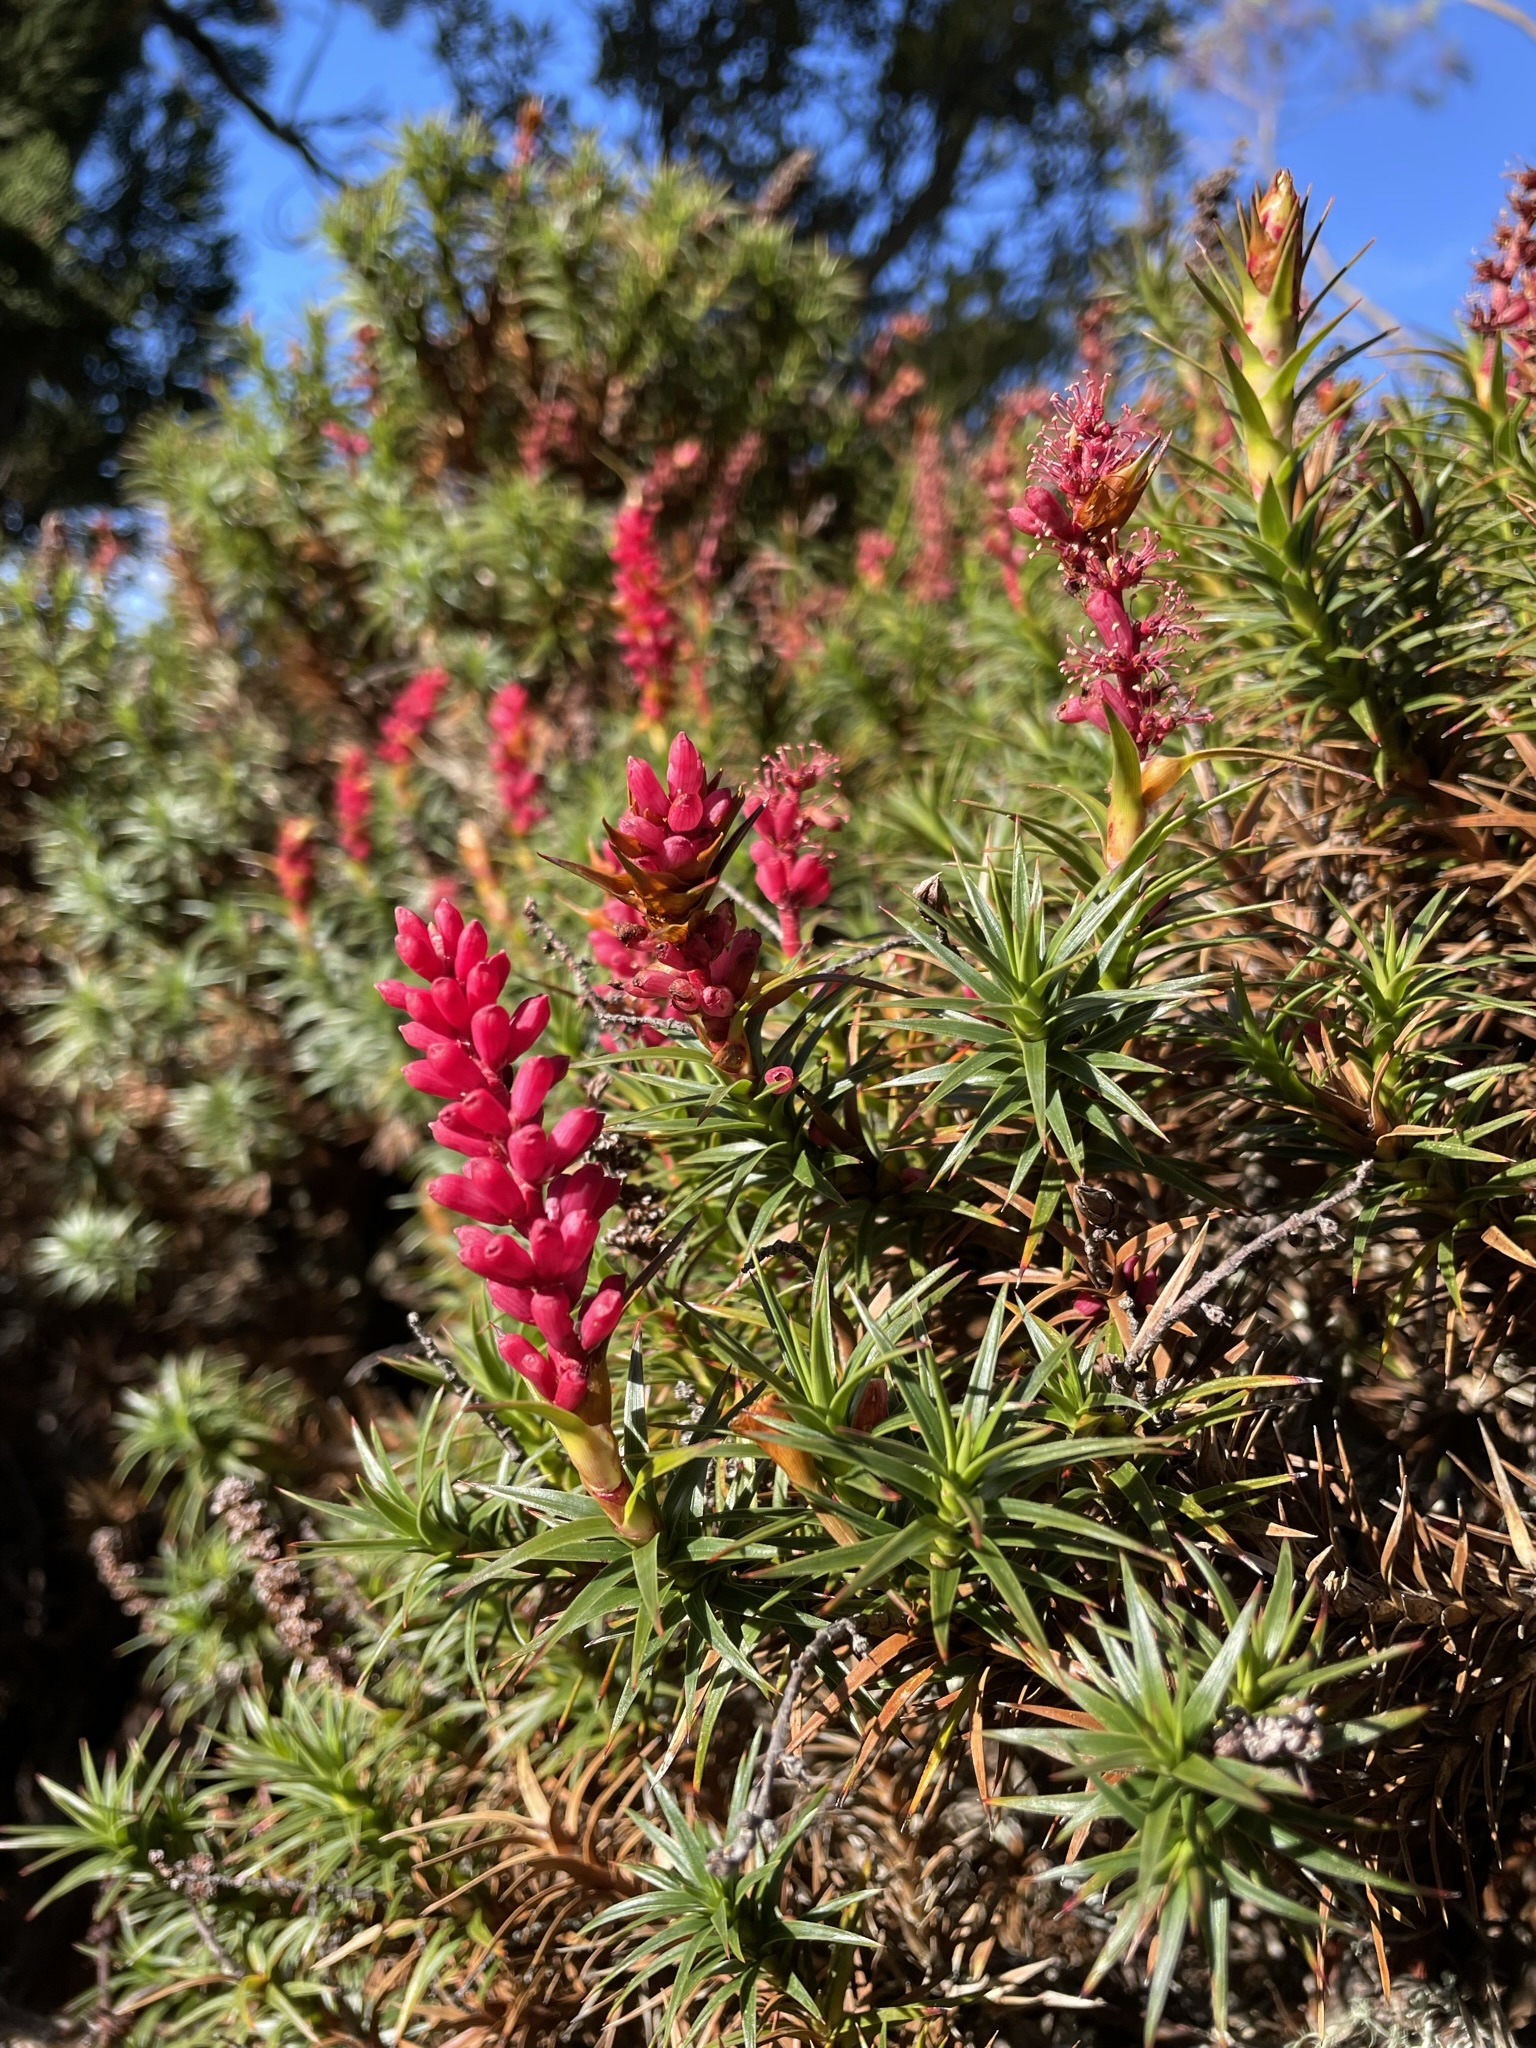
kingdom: Plantae
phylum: Tracheophyta
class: Magnoliopsida
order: Ericales
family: Ericaceae
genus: Dracophyllum
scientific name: Dracophyllum persistentifolium
